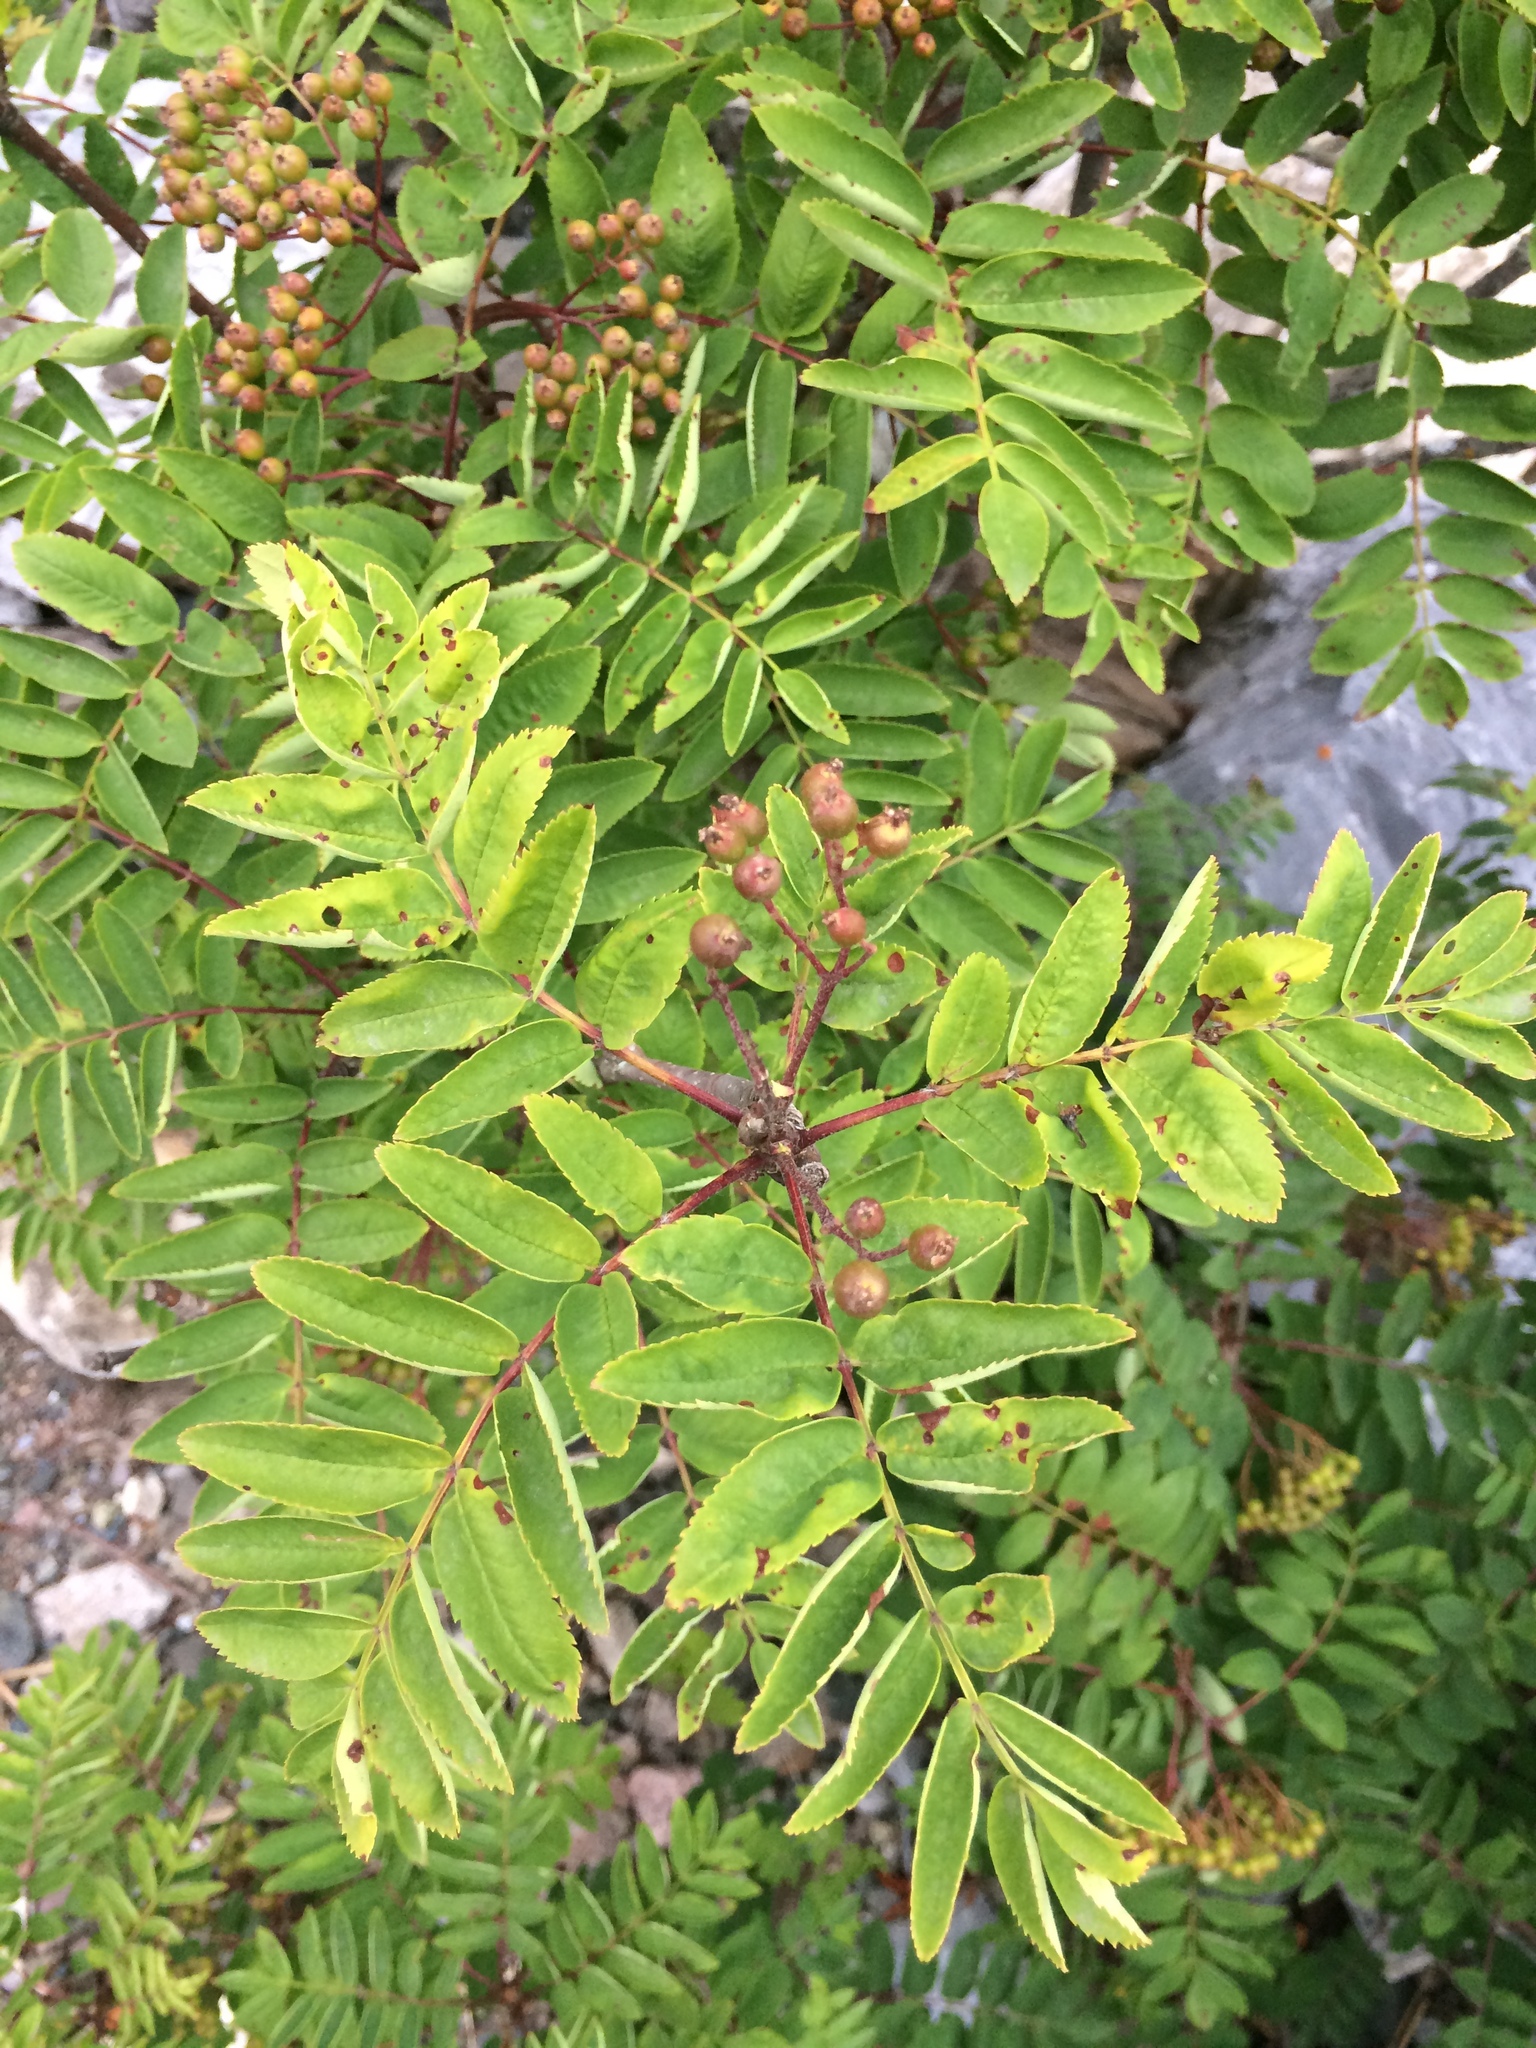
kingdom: Plantae
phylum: Tracheophyta
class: Magnoliopsida
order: Rosales
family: Rosaceae
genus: Sorbus
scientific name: Sorbus aucuparia
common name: Rowan
